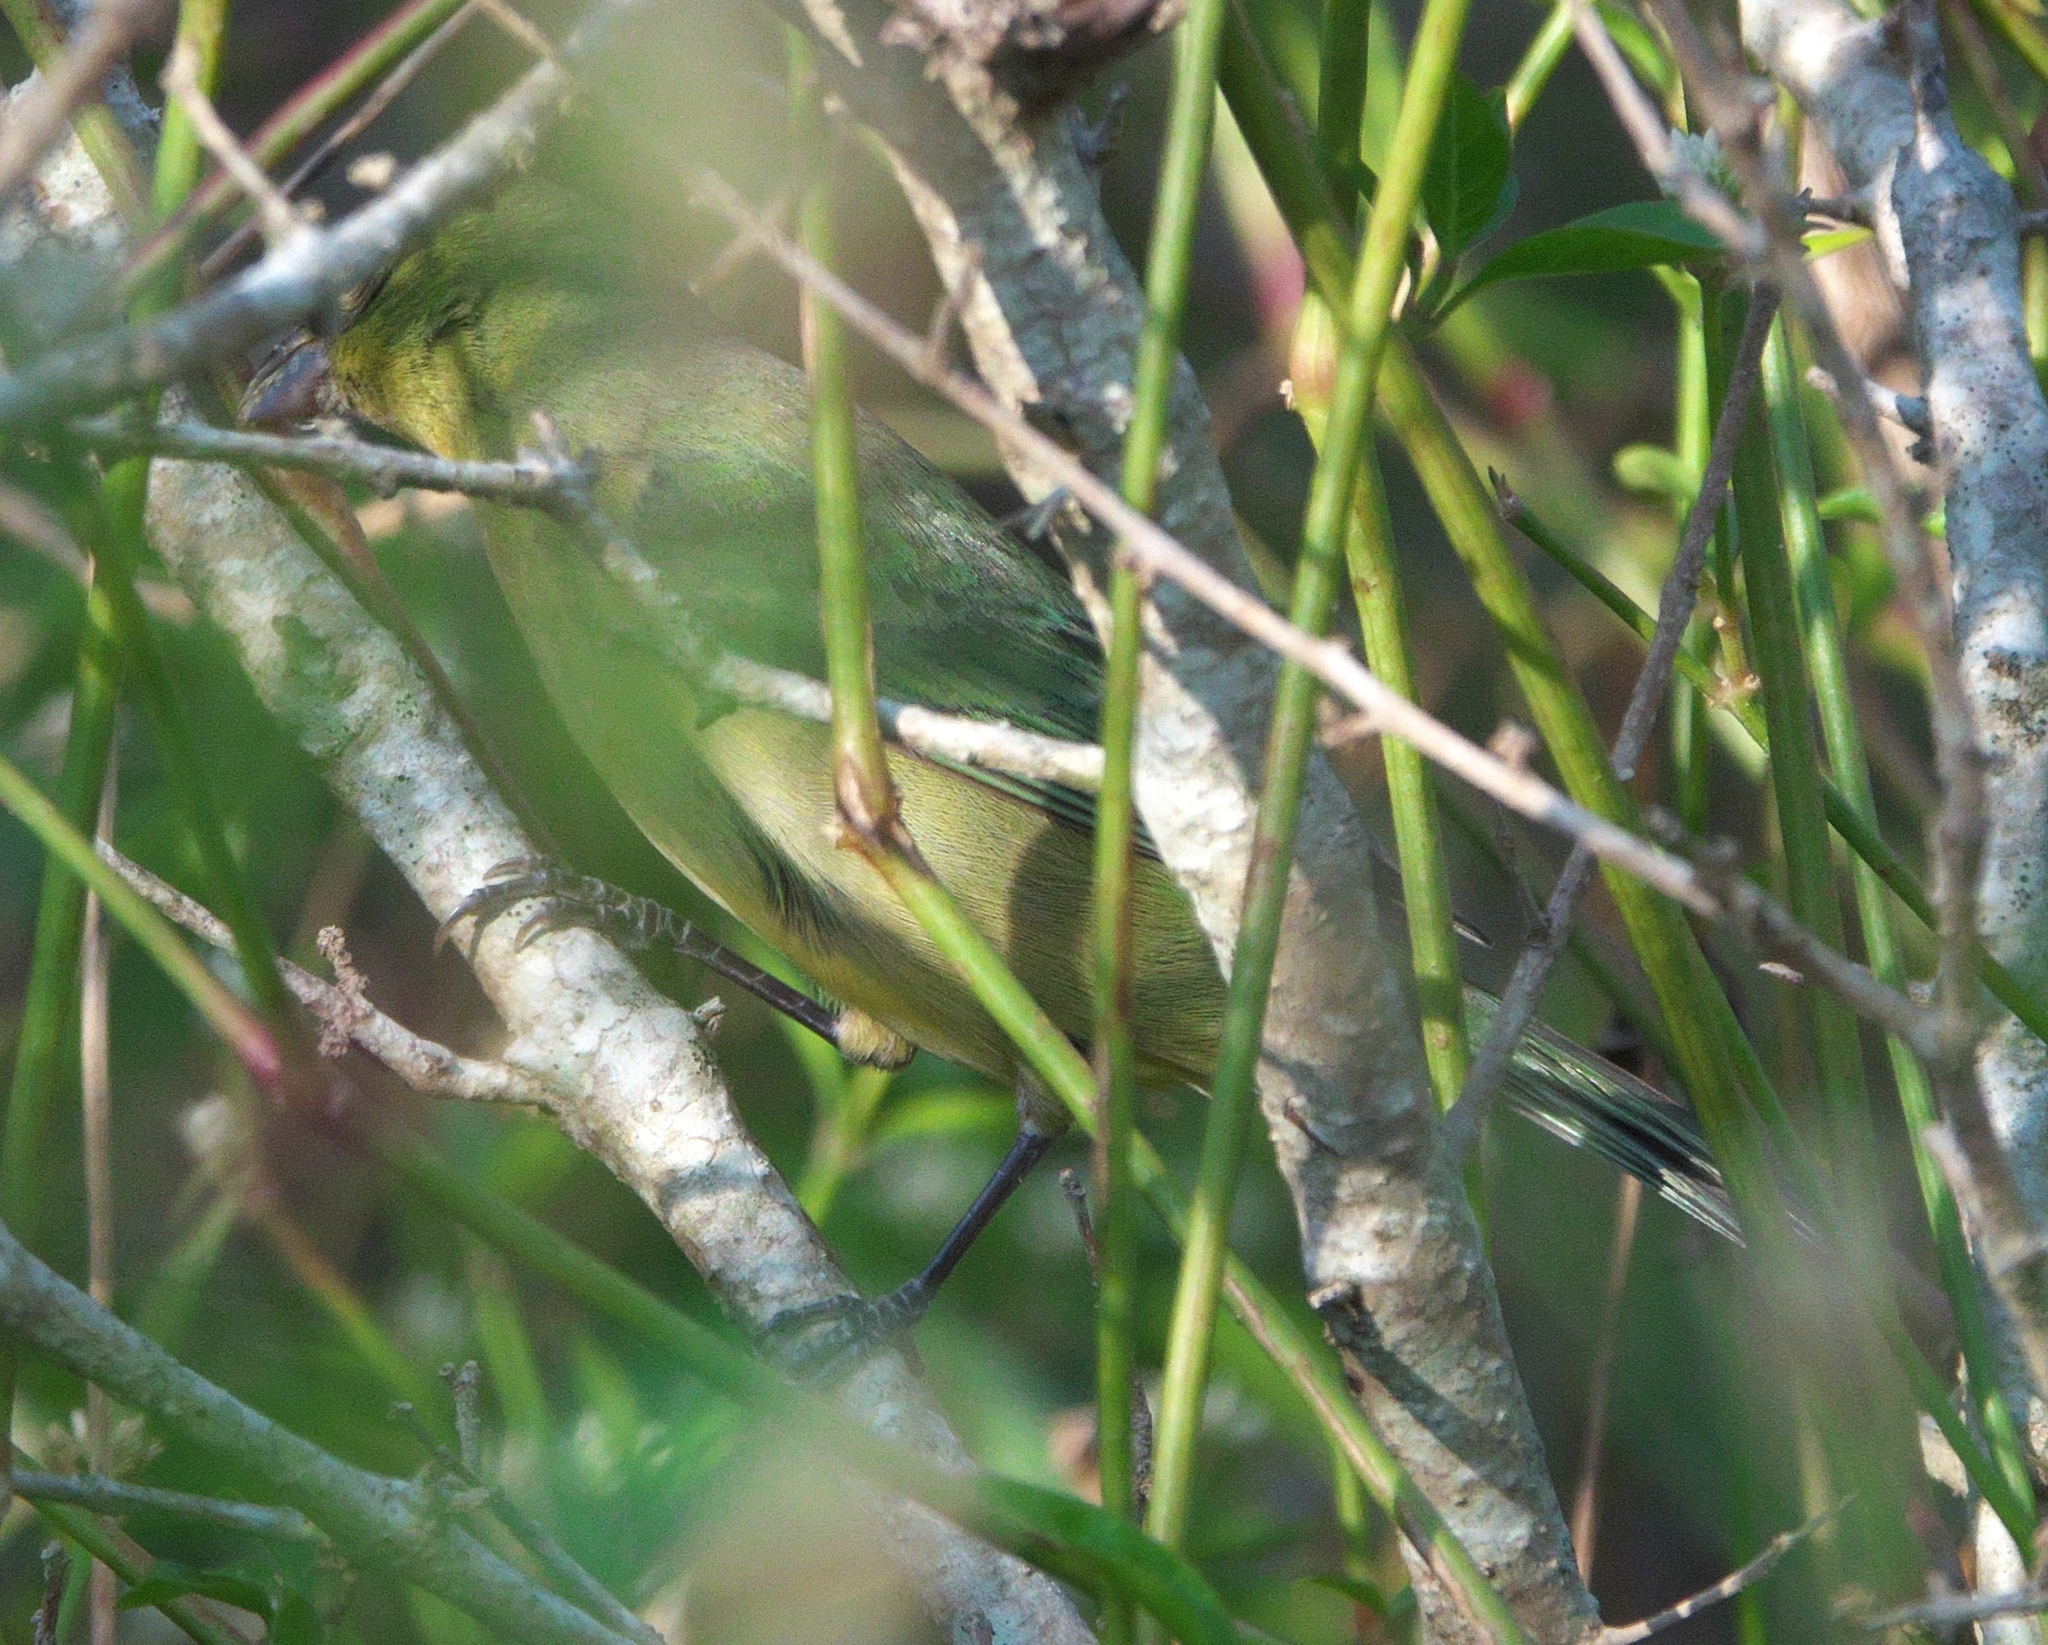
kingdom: Animalia
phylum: Chordata
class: Aves
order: Passeriformes
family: Cardinalidae
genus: Passerina
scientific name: Passerina ciris
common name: Painted bunting
